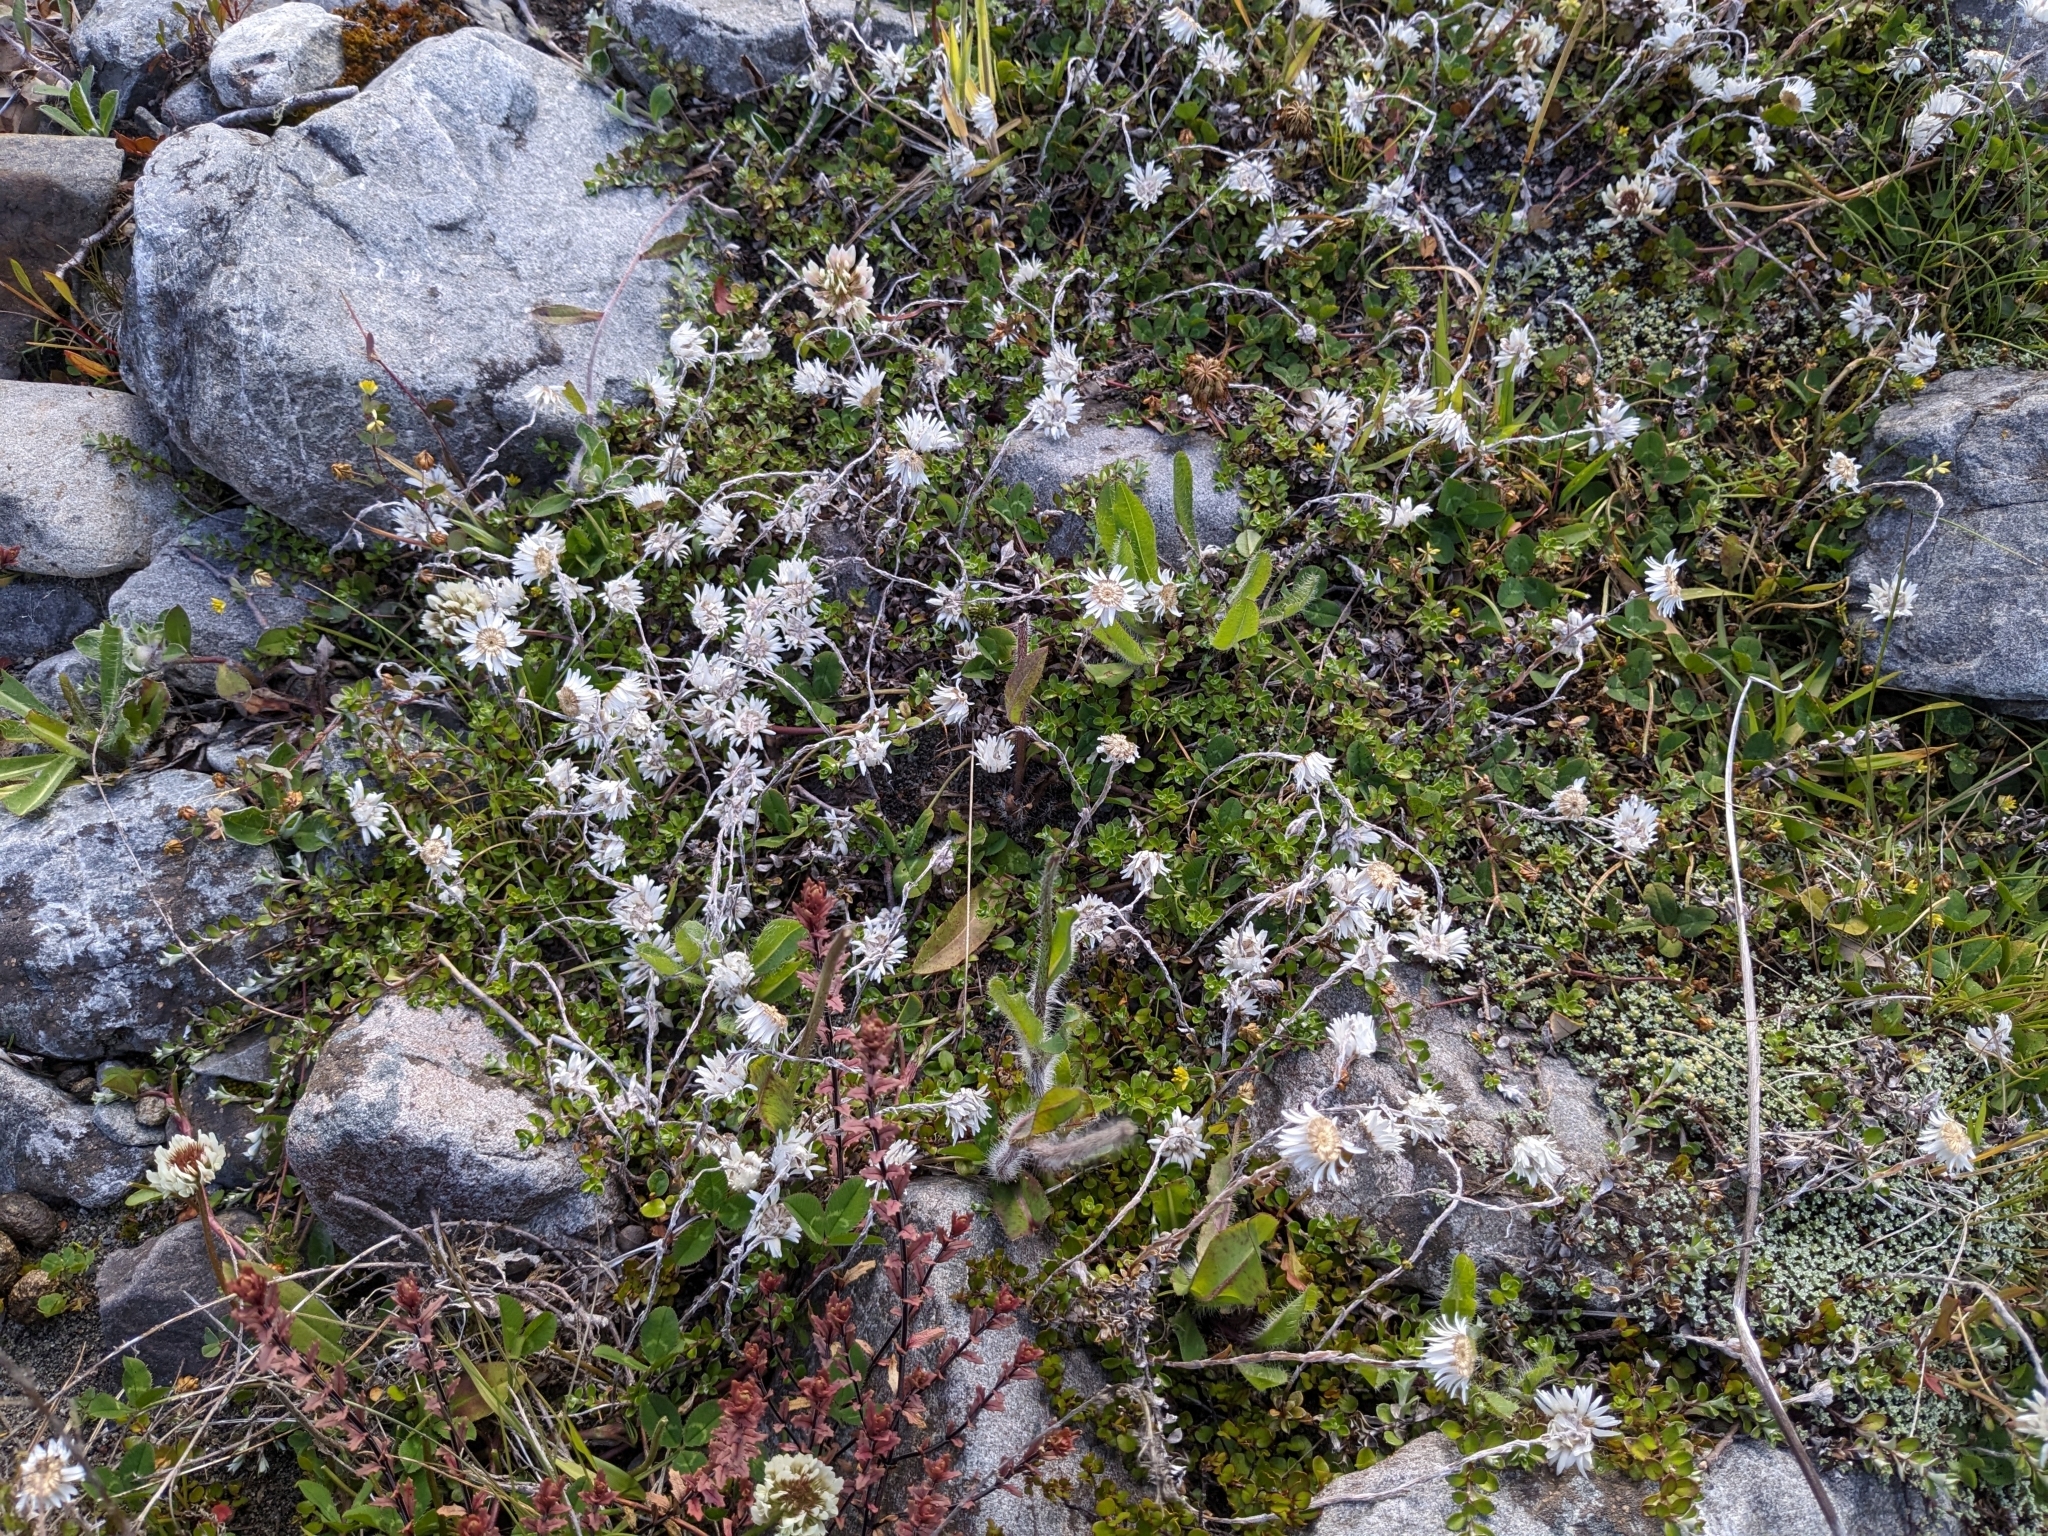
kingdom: Plantae
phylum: Tracheophyta
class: Magnoliopsida
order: Asterales
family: Asteraceae
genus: Anaphalioides
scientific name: Anaphalioides bellidioides
